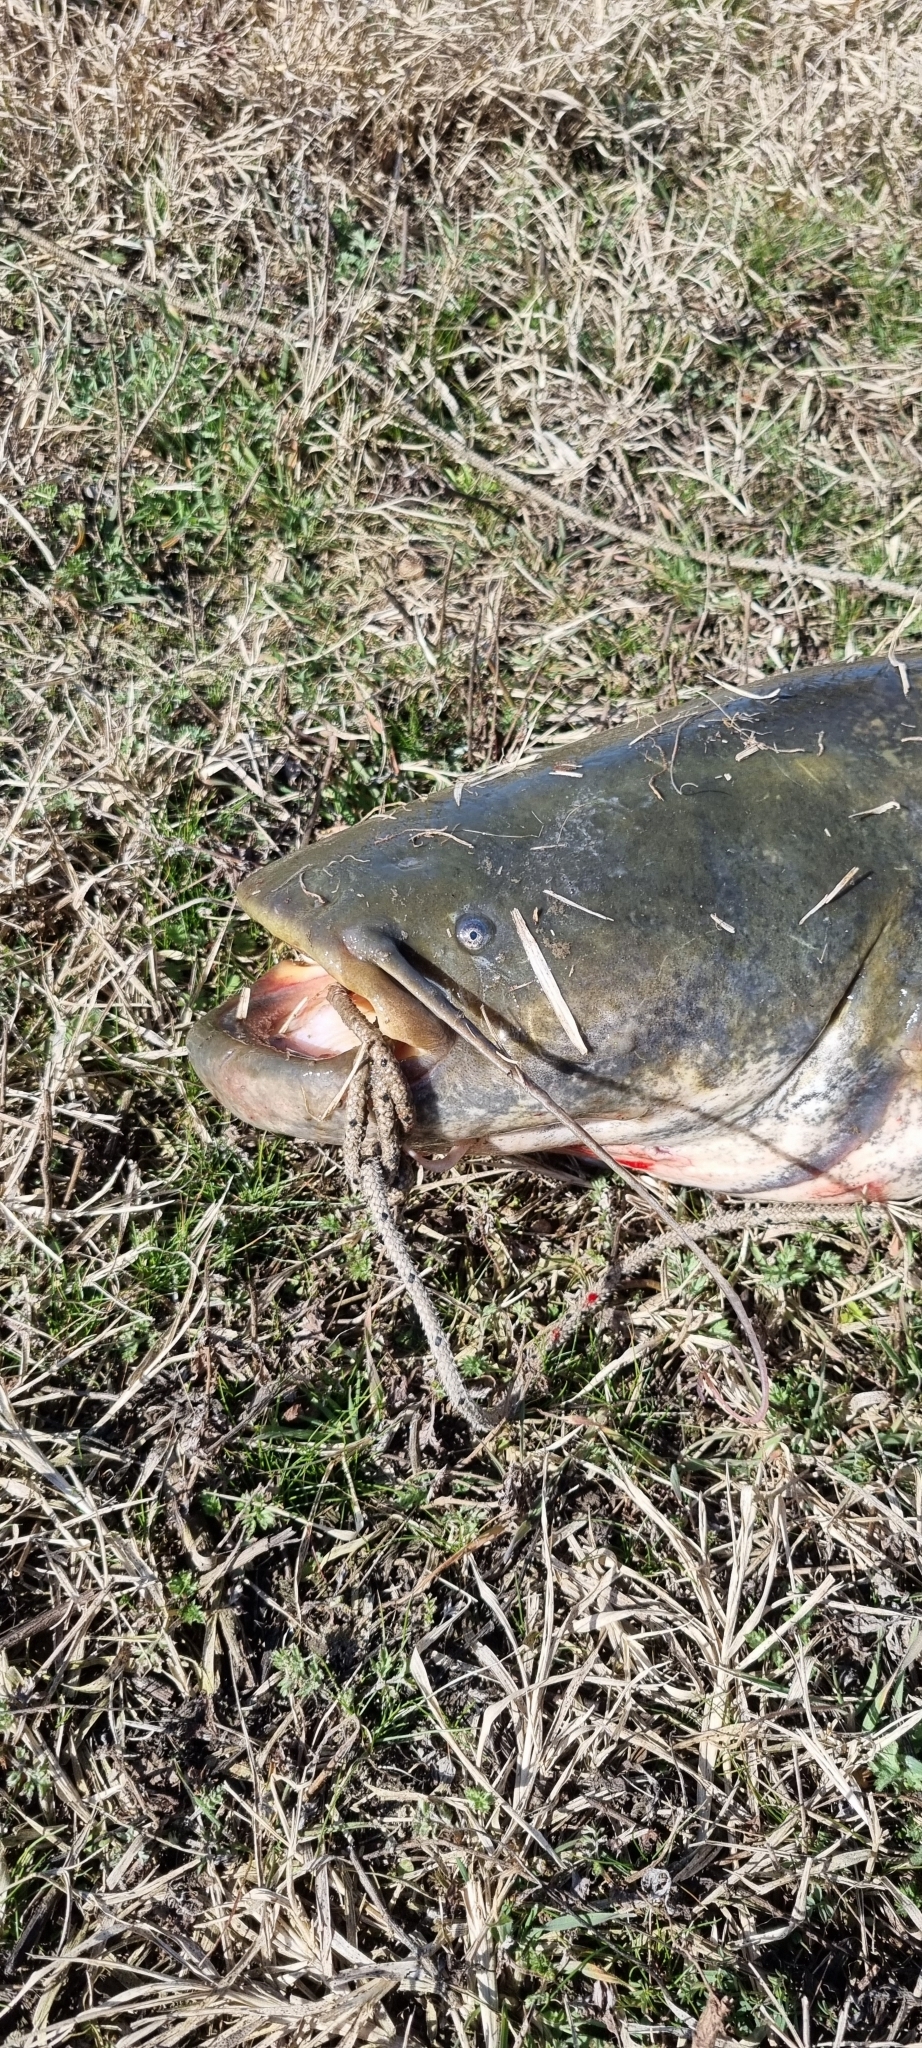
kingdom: Animalia
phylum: Chordata
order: Siluriformes
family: Siluridae
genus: Silurus
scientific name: Silurus glanis
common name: Wels
